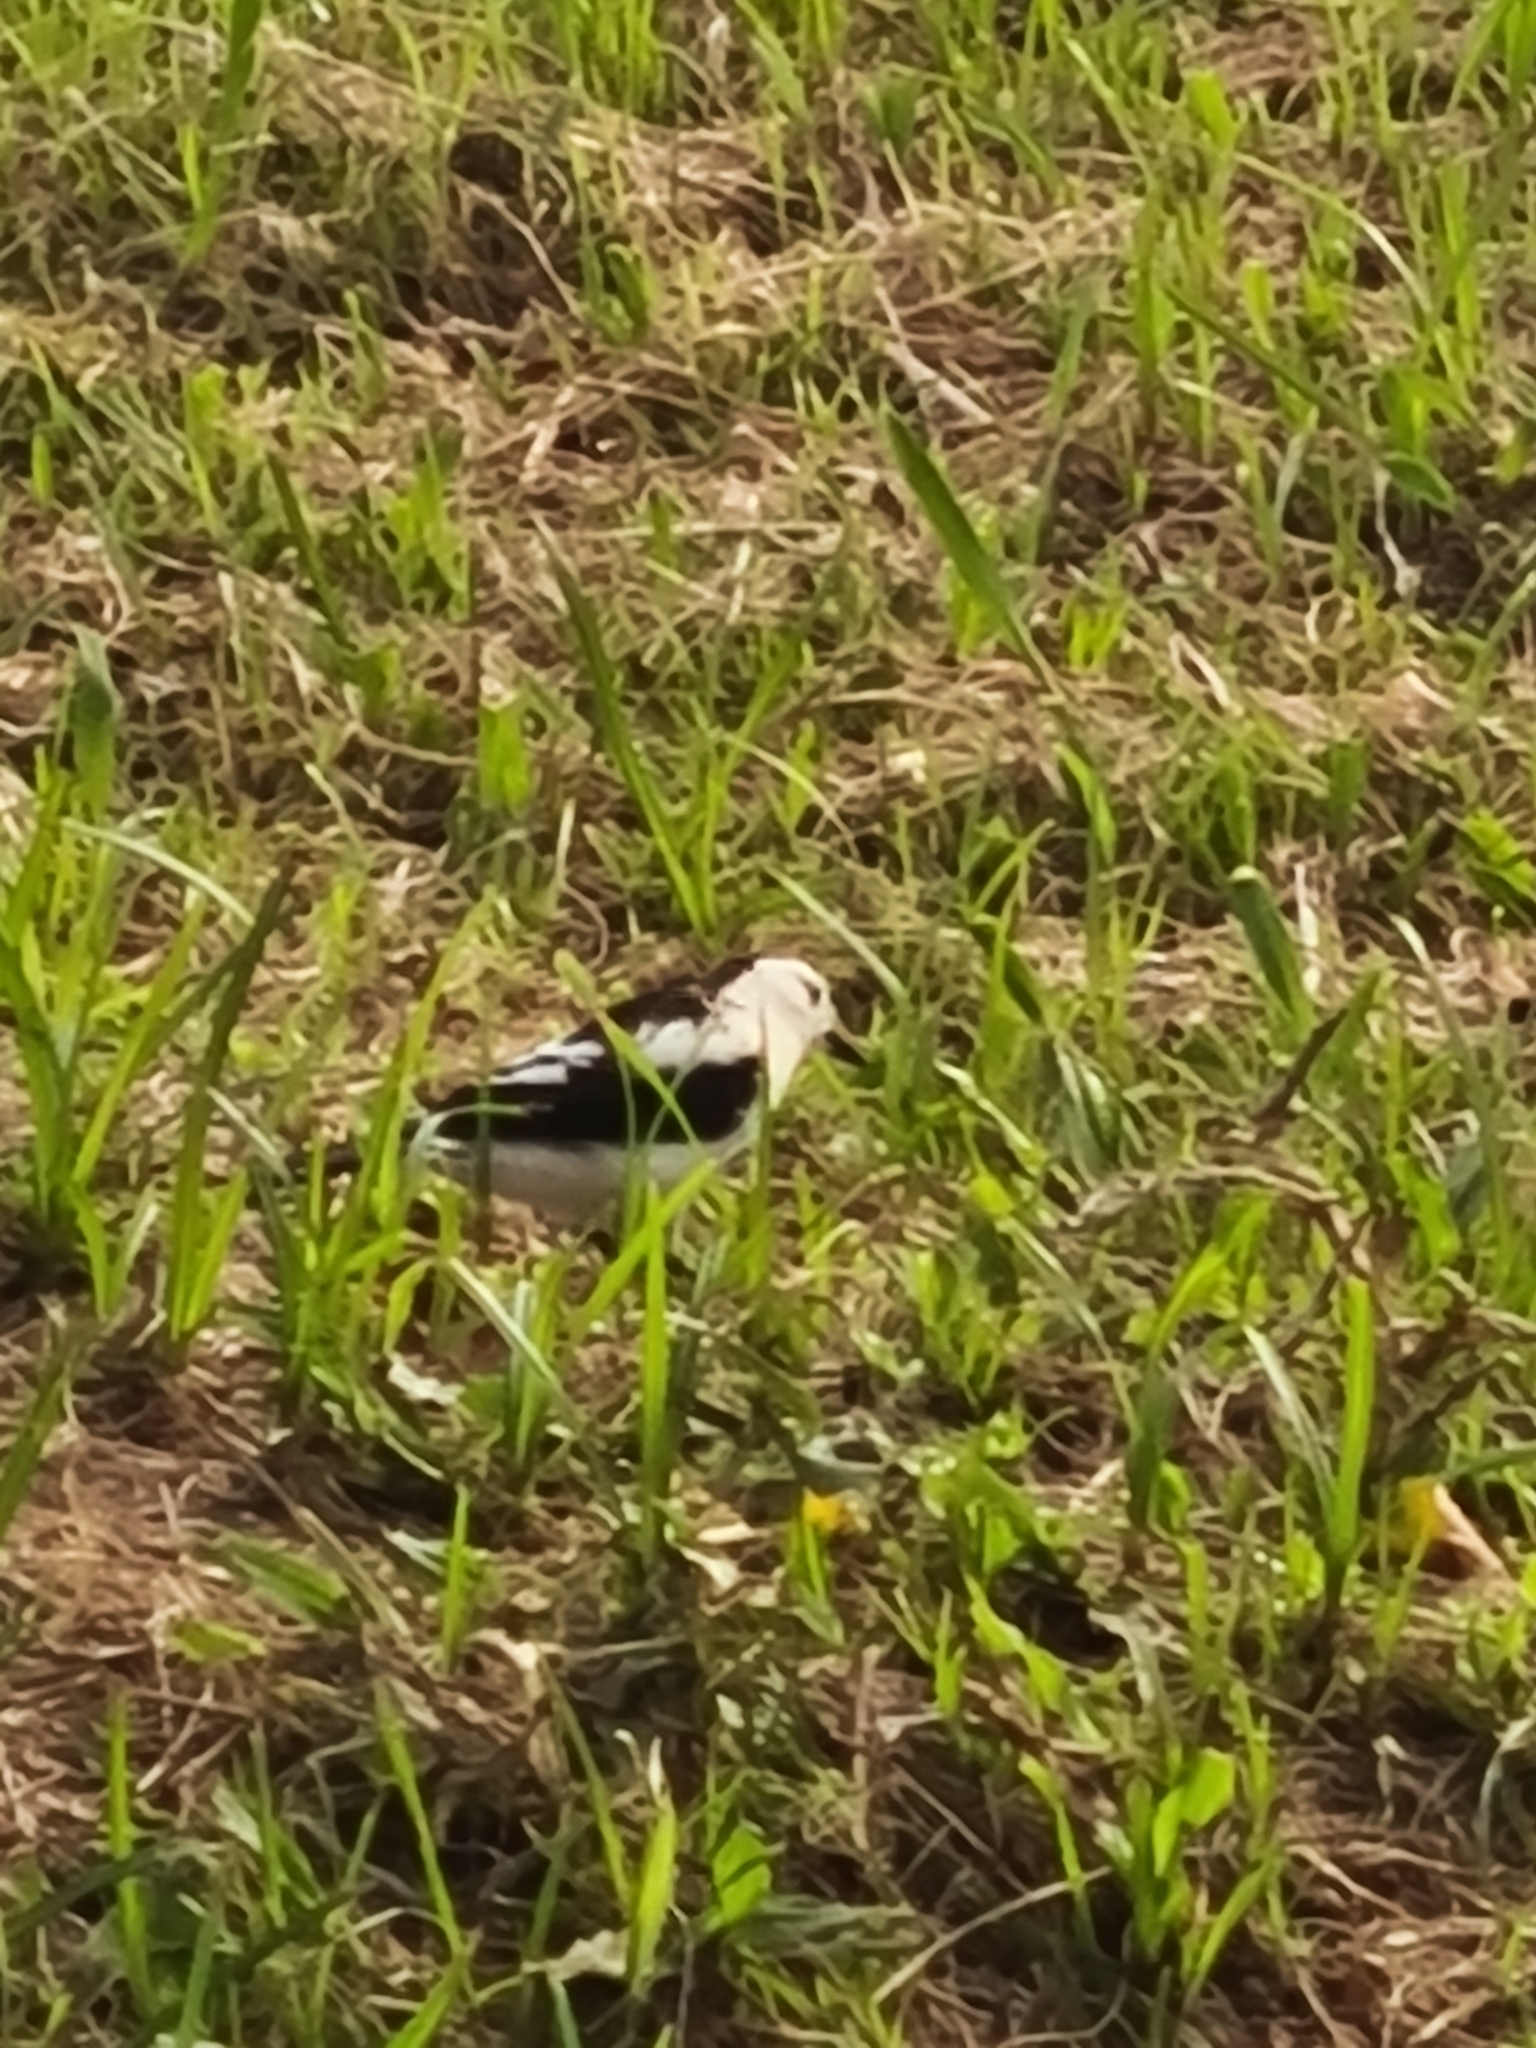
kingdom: Animalia
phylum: Chordata
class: Aves
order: Passeriformes
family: Tyrannidae
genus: Fluvicola
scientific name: Fluvicola pica
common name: Pied water-tyrant
